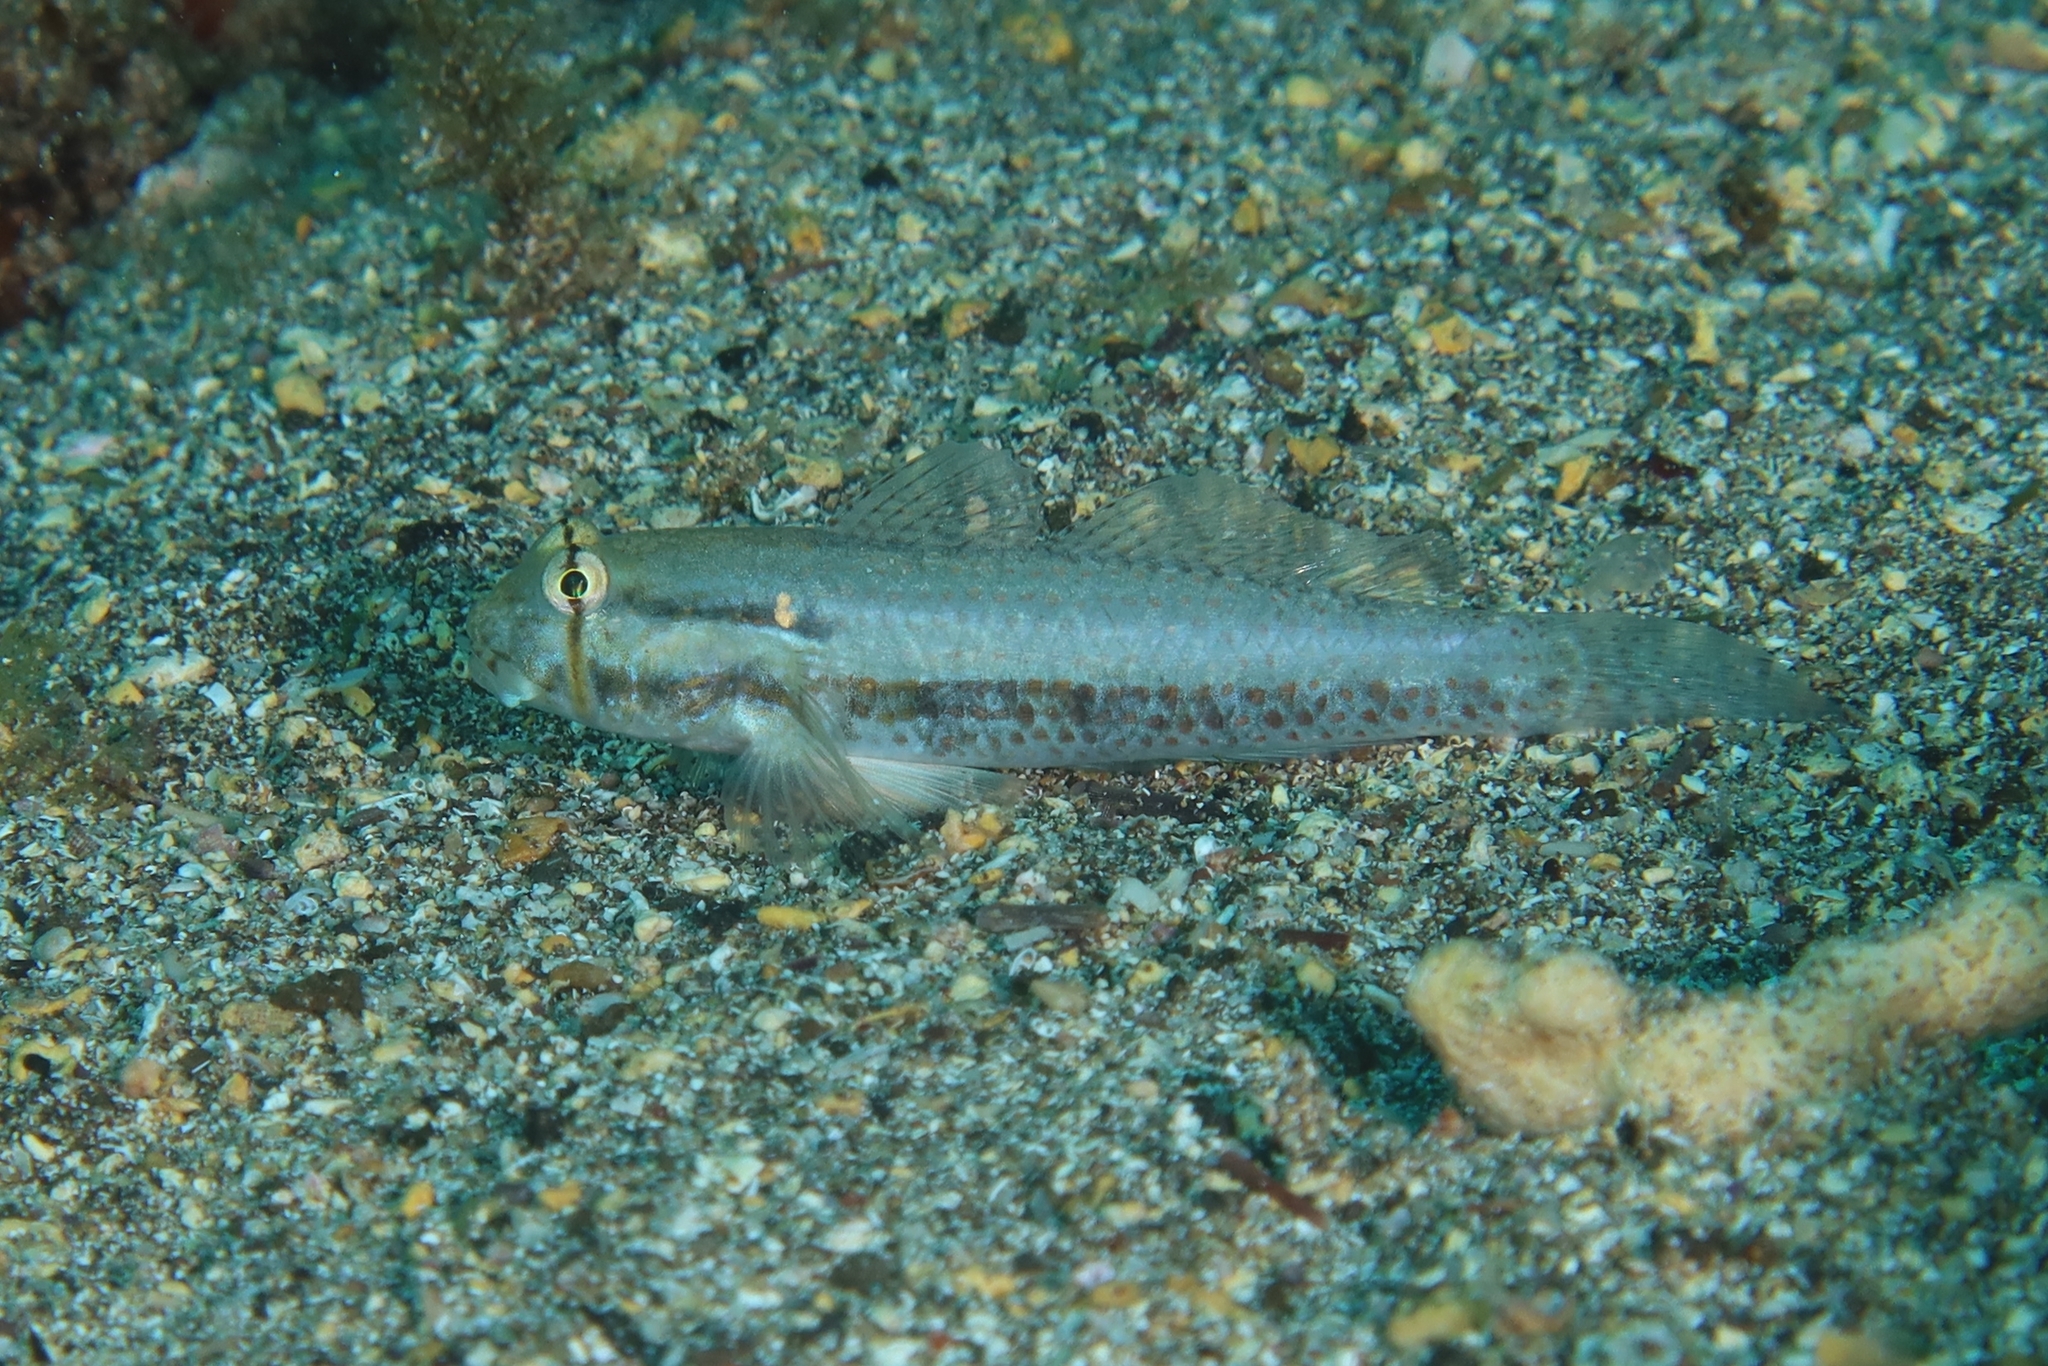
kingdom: Animalia
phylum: Chordata
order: Perciformes
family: Gobiidae
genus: Gnatholepis
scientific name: Gnatholepis thompsoni
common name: Goldspot goby
